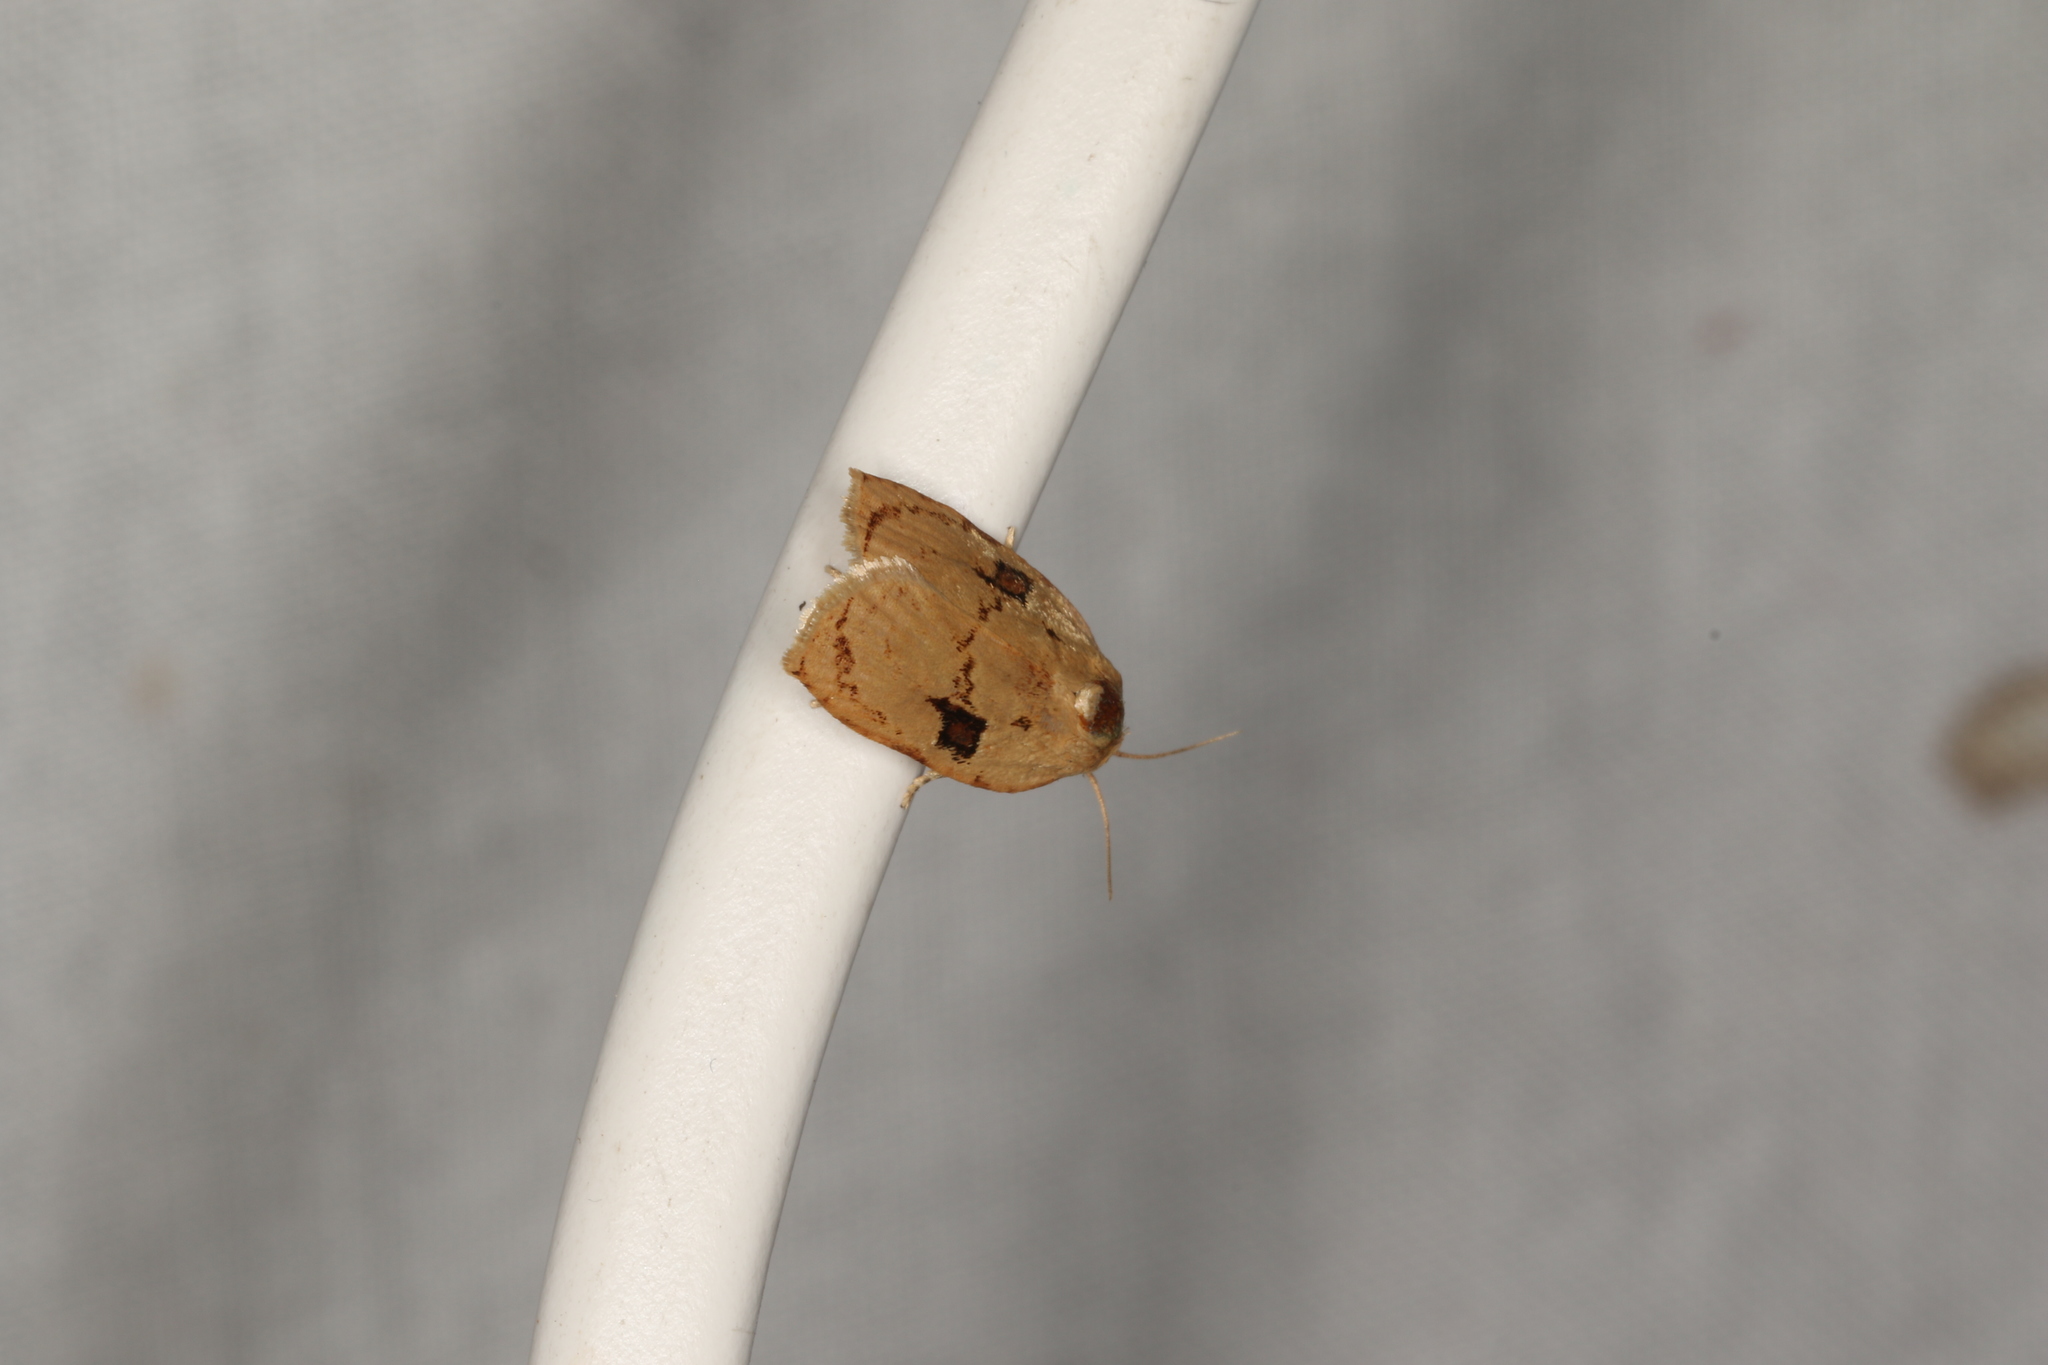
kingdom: Animalia
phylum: Arthropoda
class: Insecta
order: Lepidoptera
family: Tortricidae
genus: Homona
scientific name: Homona mermerodes
